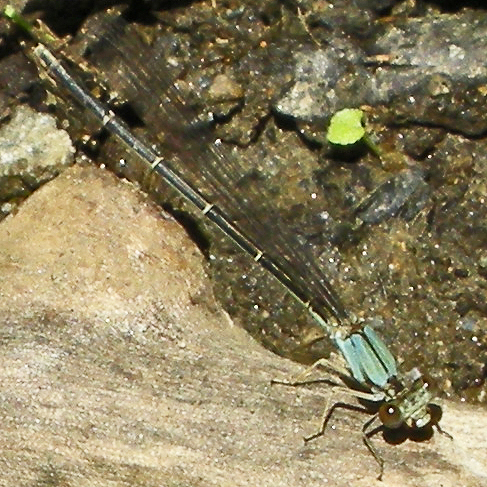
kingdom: Animalia
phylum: Arthropoda
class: Insecta
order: Odonata
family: Coenagrionidae
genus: Argia
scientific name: Argia apicalis
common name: Blue-fronted dancer
